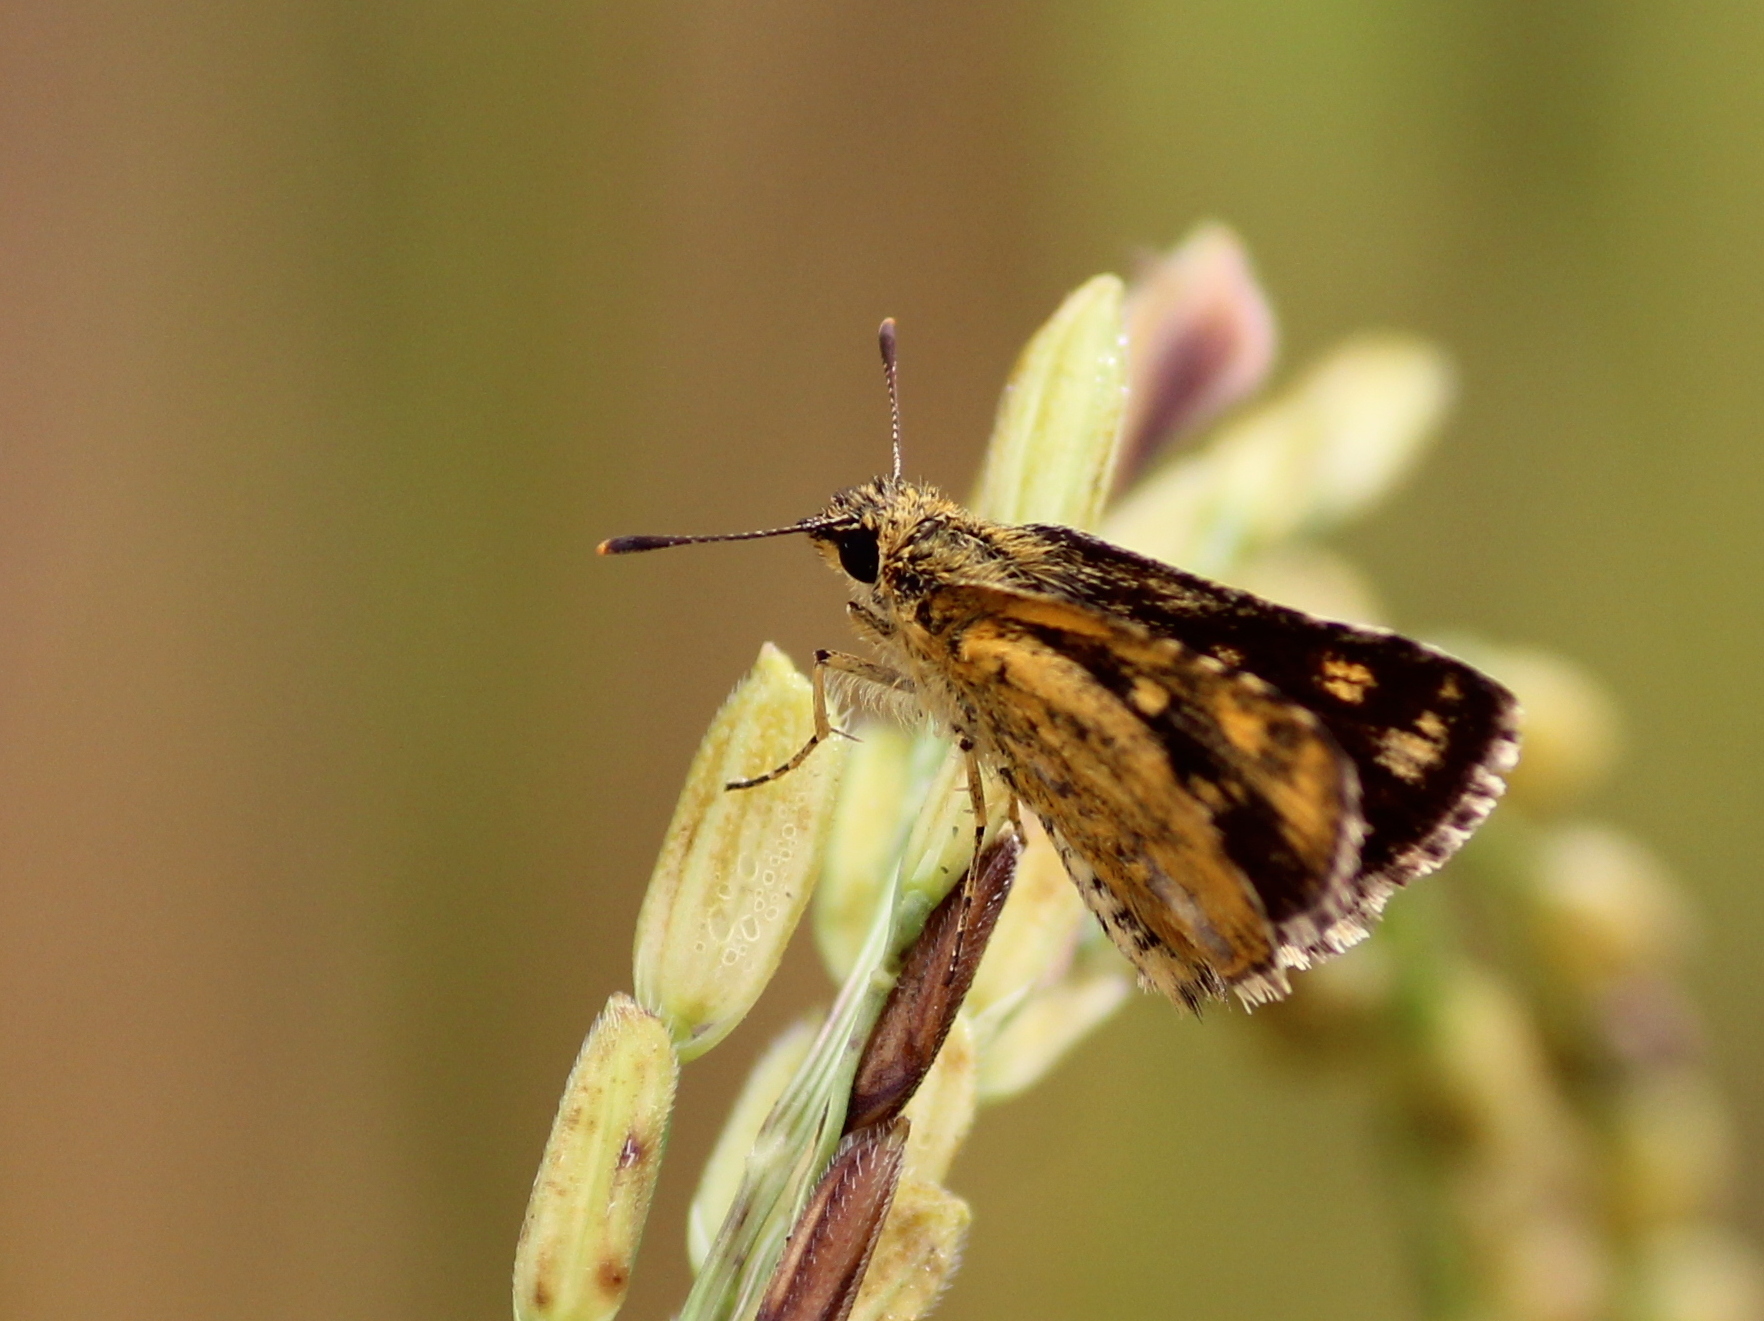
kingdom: Animalia
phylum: Arthropoda
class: Insecta
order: Lepidoptera
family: Hesperiidae
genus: Ampittia
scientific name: Ampittia dioscorides
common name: Common bush hopper
